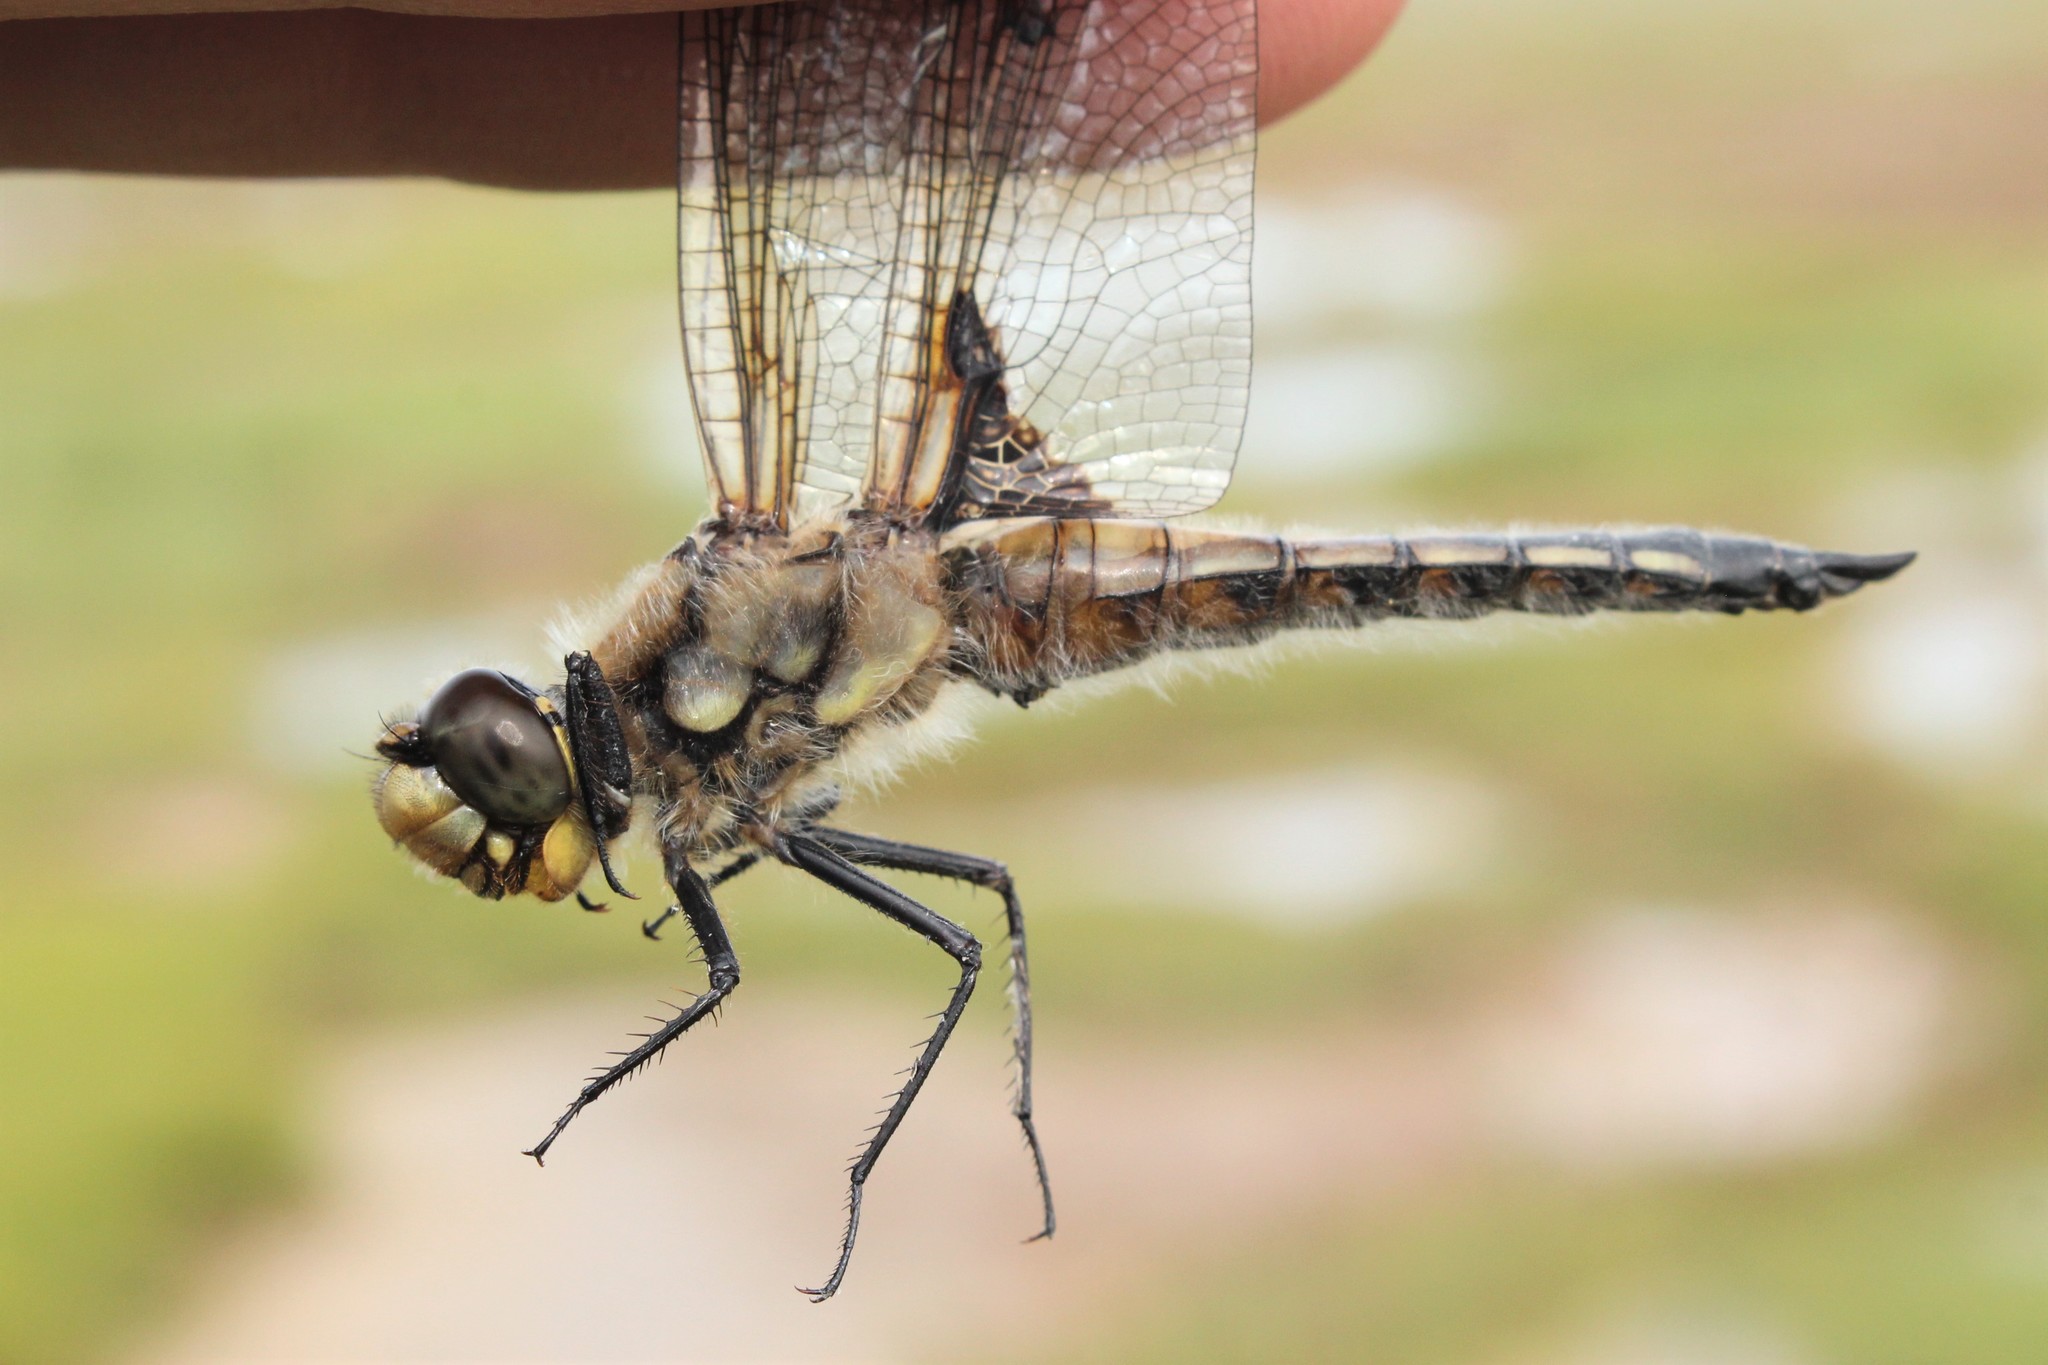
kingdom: Animalia
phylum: Arthropoda
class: Insecta
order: Odonata
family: Libellulidae
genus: Libellula
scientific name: Libellula quadrimaculata
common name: Four-spotted chaser
